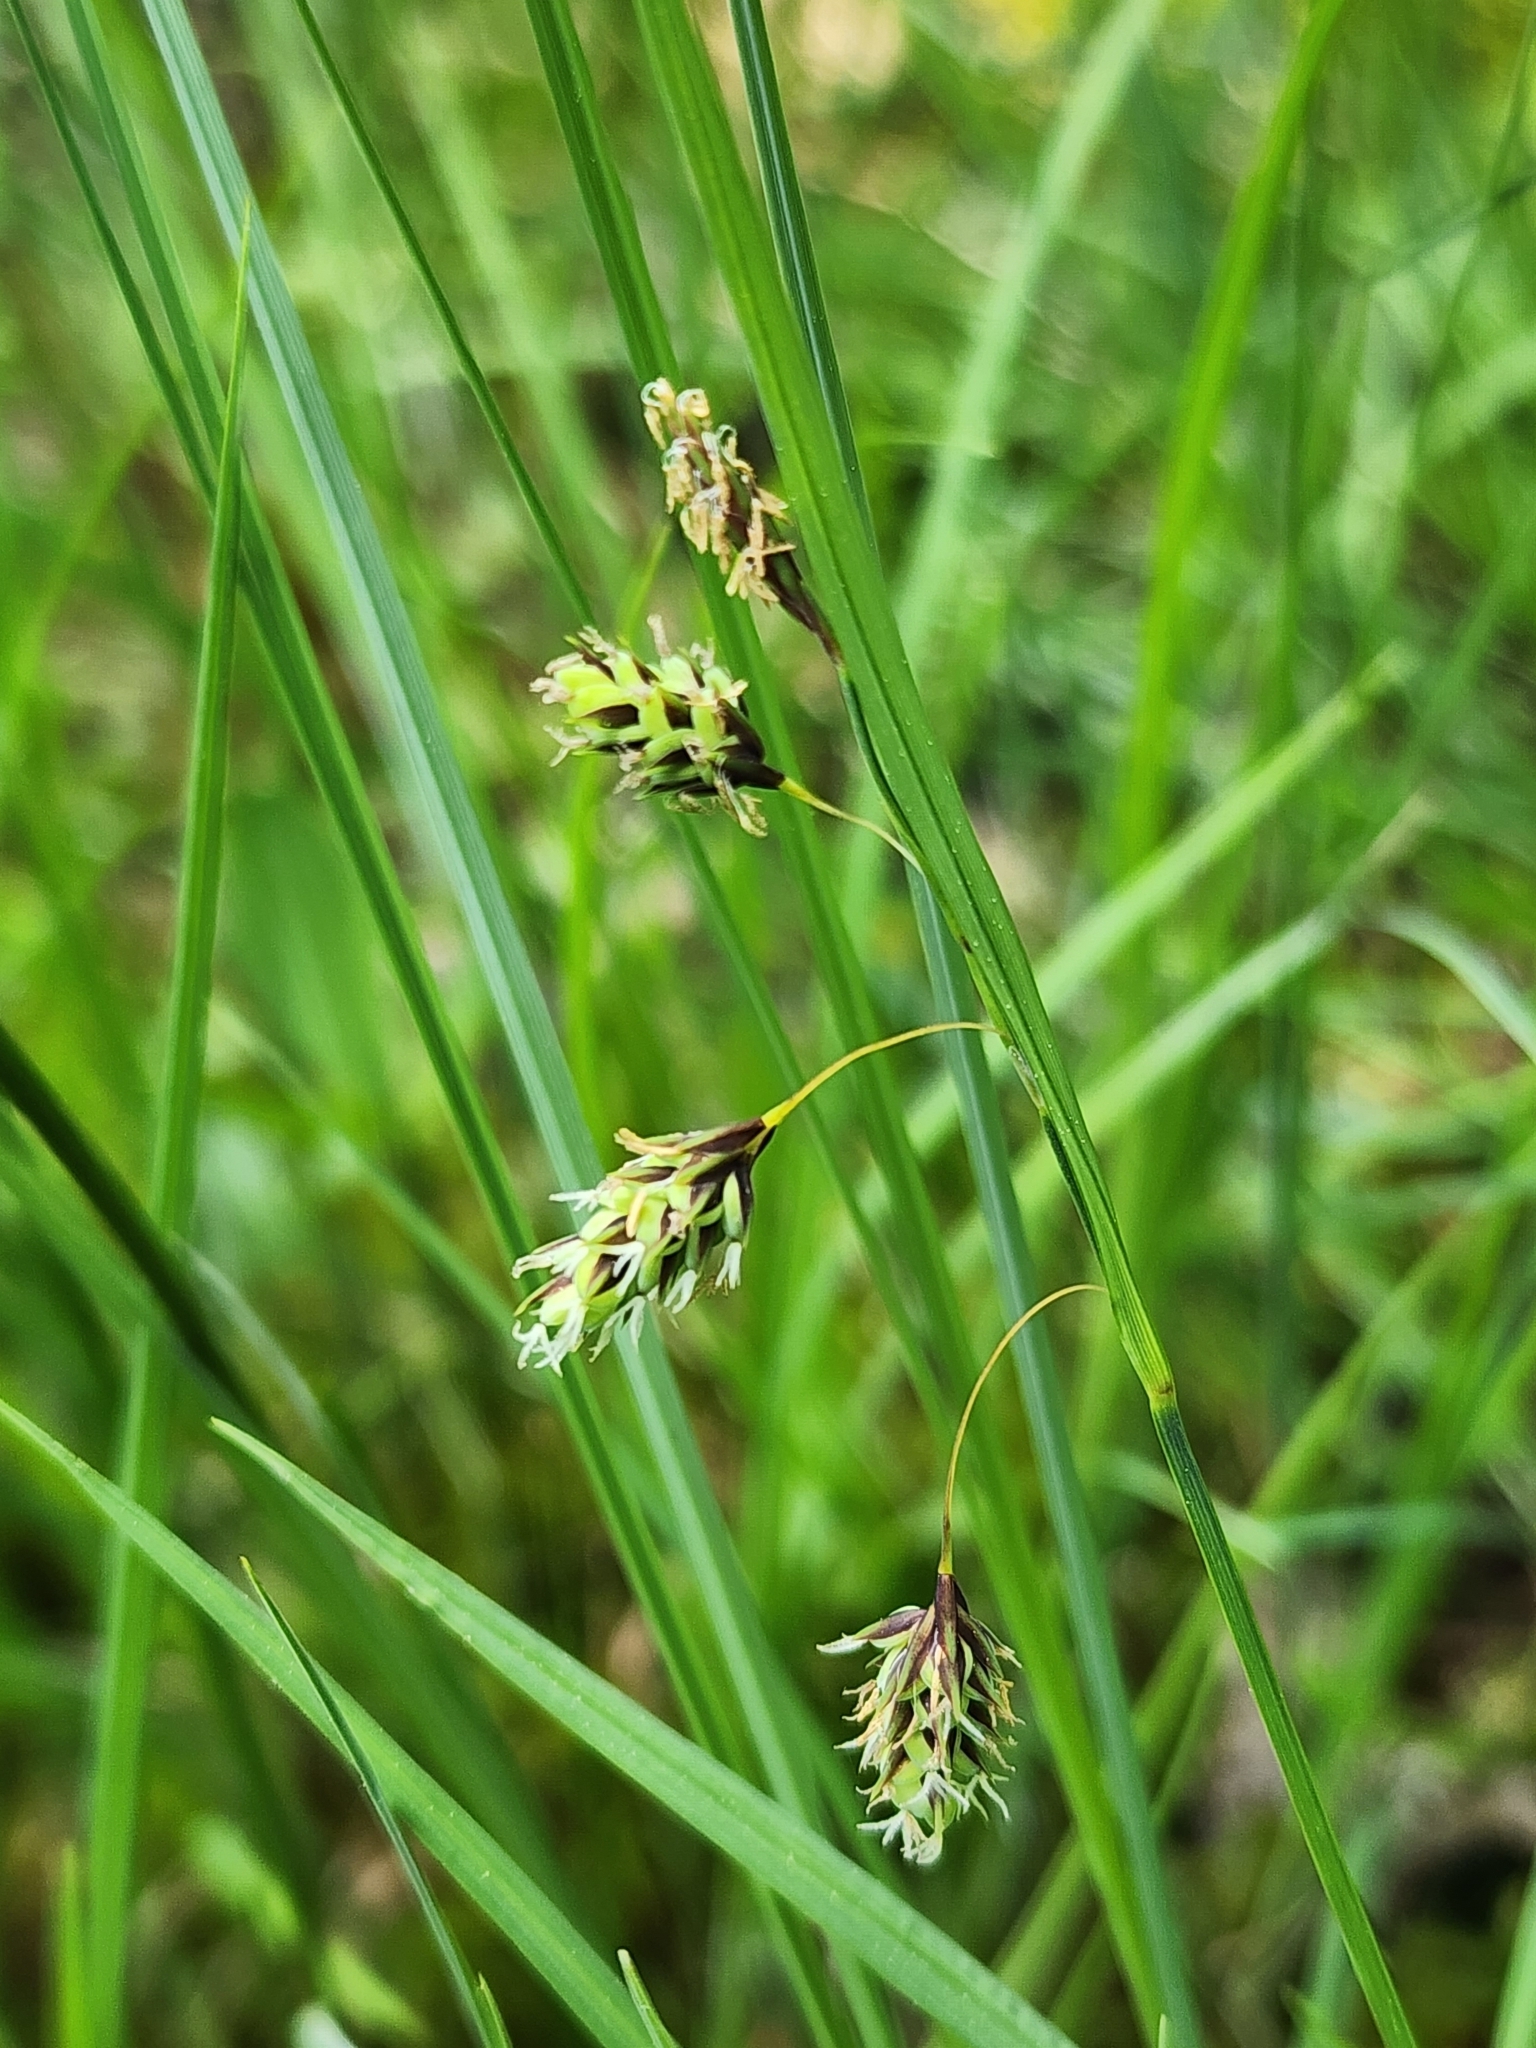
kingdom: Plantae
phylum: Tracheophyta
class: Liliopsida
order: Poales
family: Cyperaceae
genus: Carex
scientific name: Carex magellanica
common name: Bog sedge
